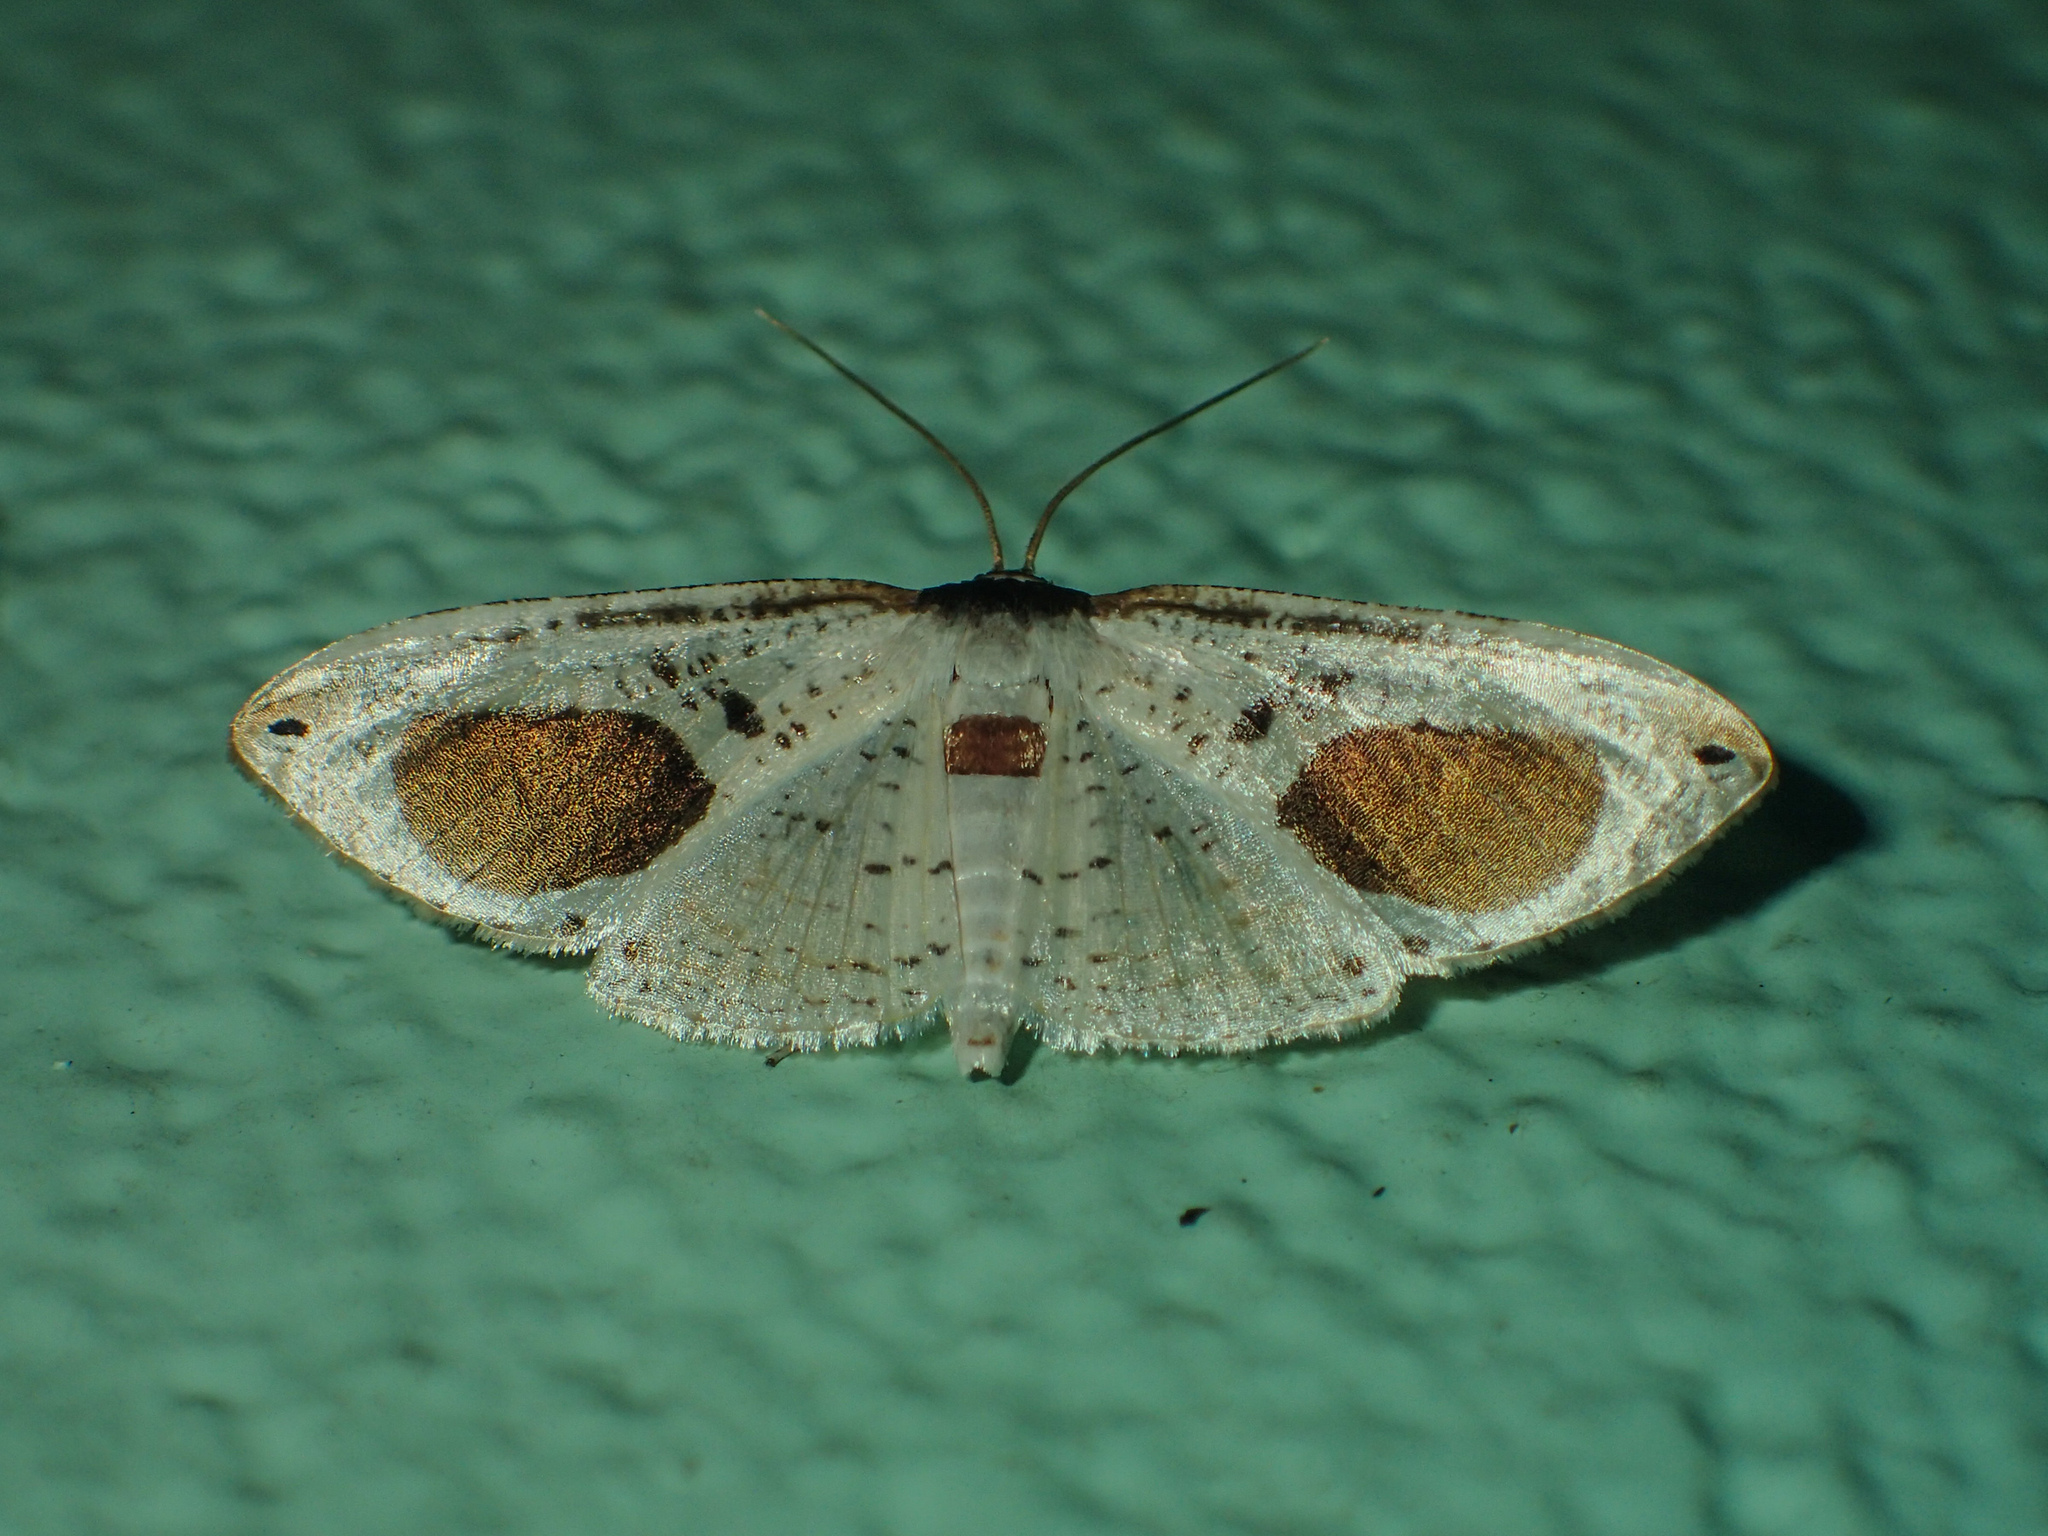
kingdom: Animalia
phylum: Arthropoda
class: Insecta
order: Lepidoptera
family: Thyrididae
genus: Calindoea
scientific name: Calindoea
